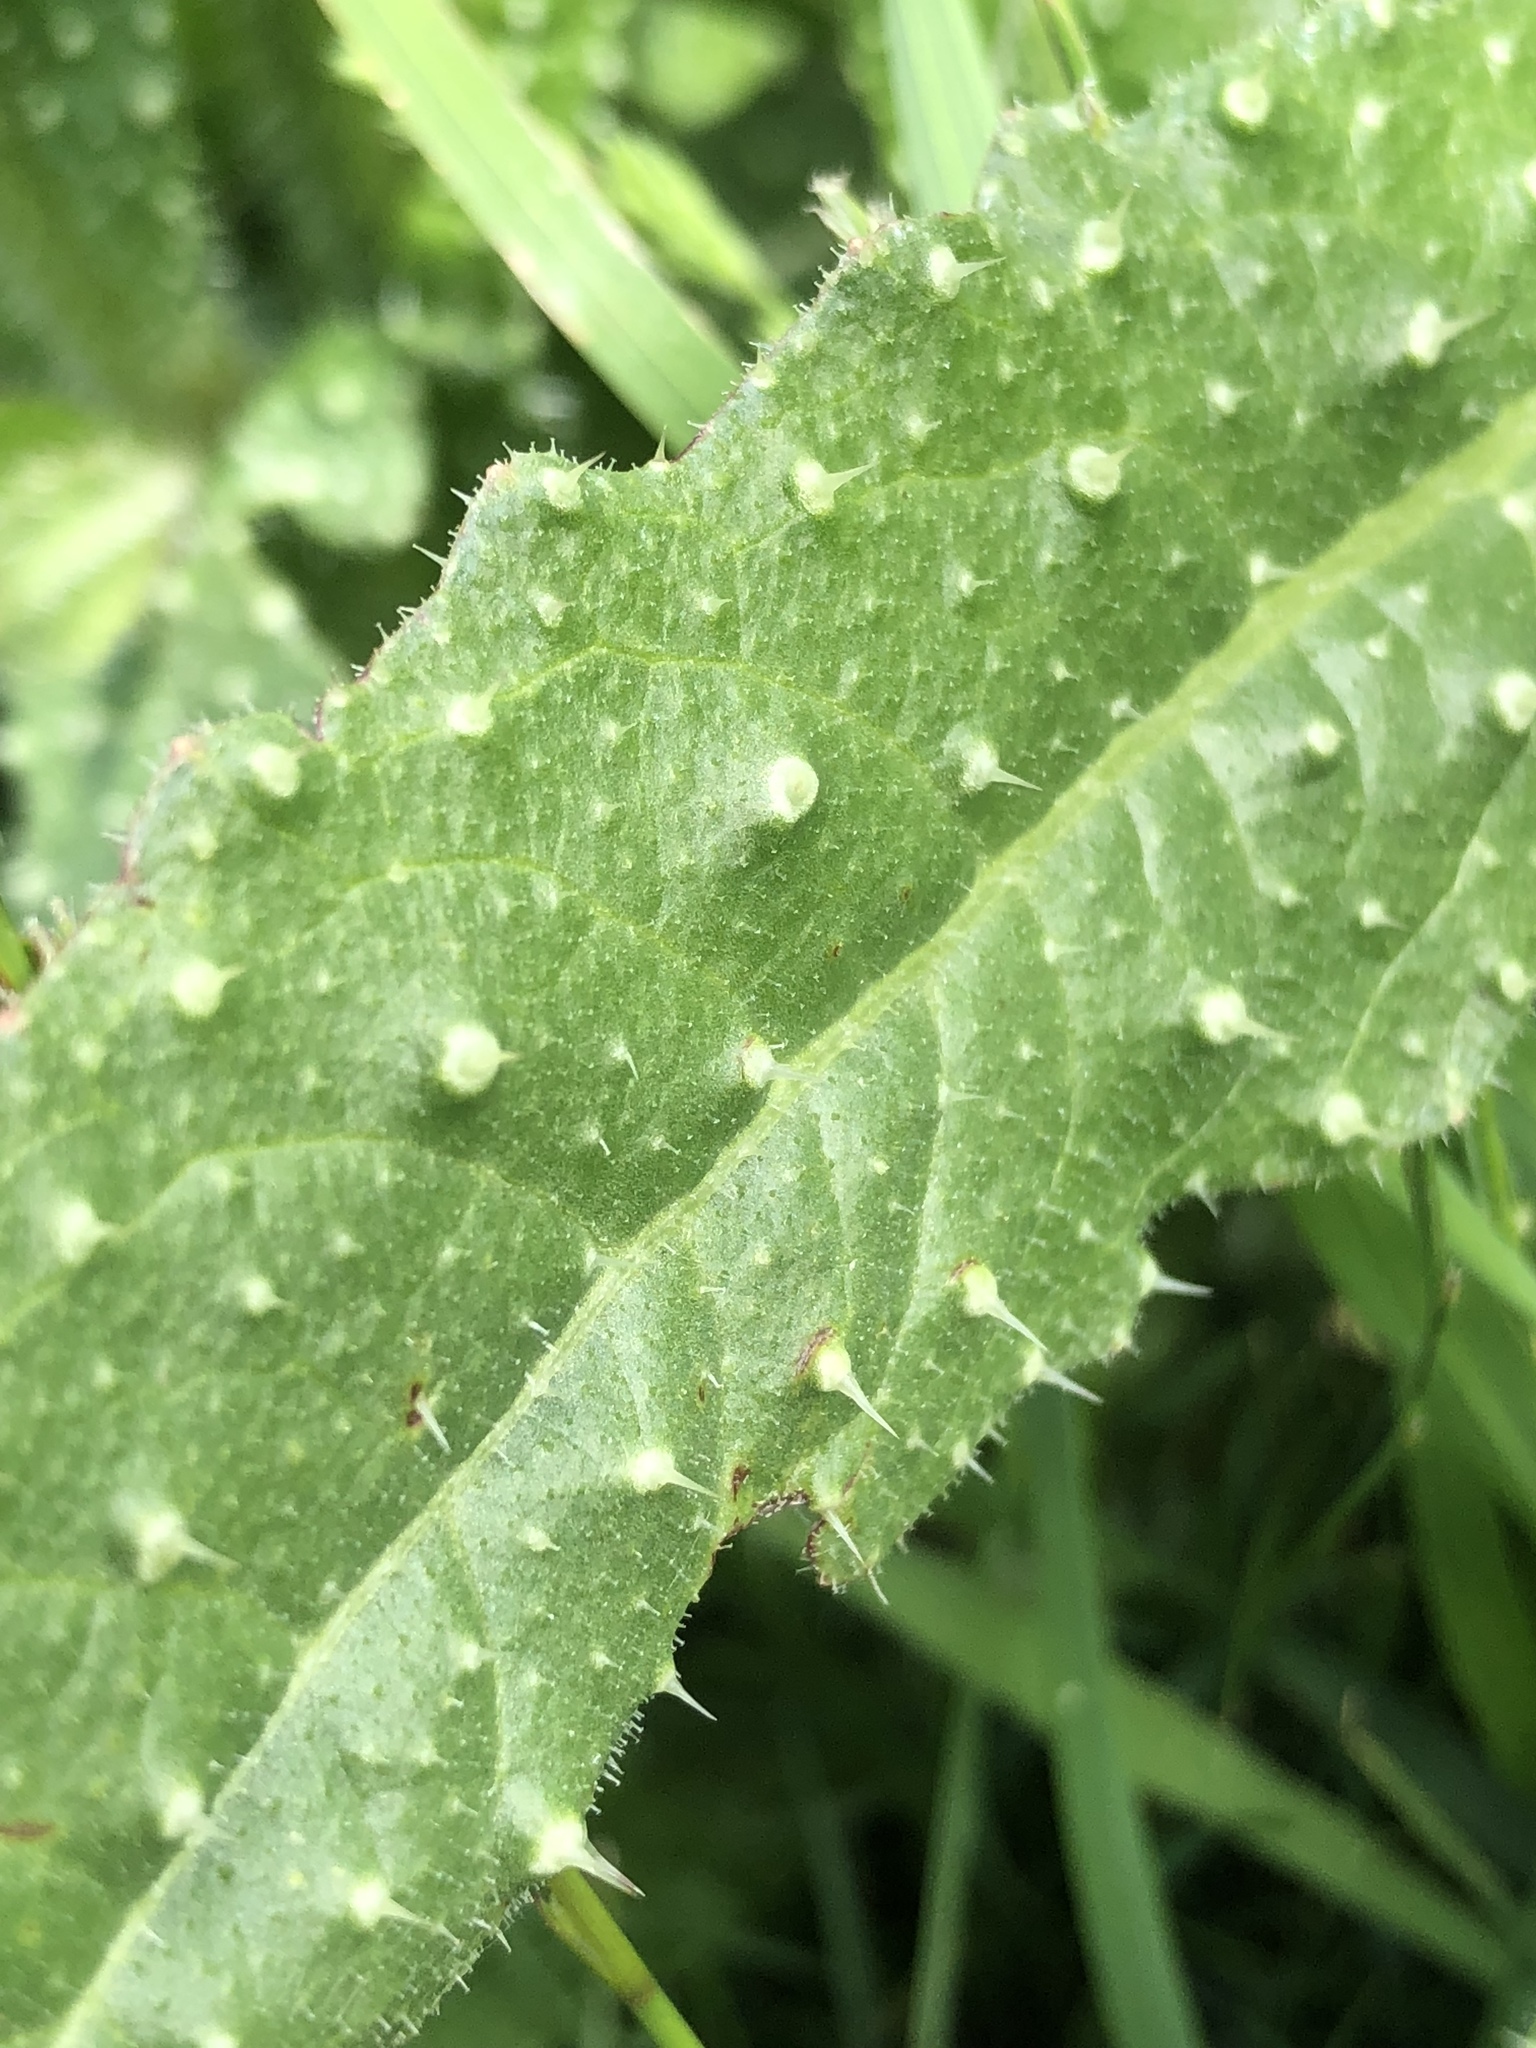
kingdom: Plantae
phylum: Tracheophyta
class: Magnoliopsida
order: Asterales
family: Asteraceae
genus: Helminthotheca
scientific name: Helminthotheca echioides
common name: Ox-tongue
